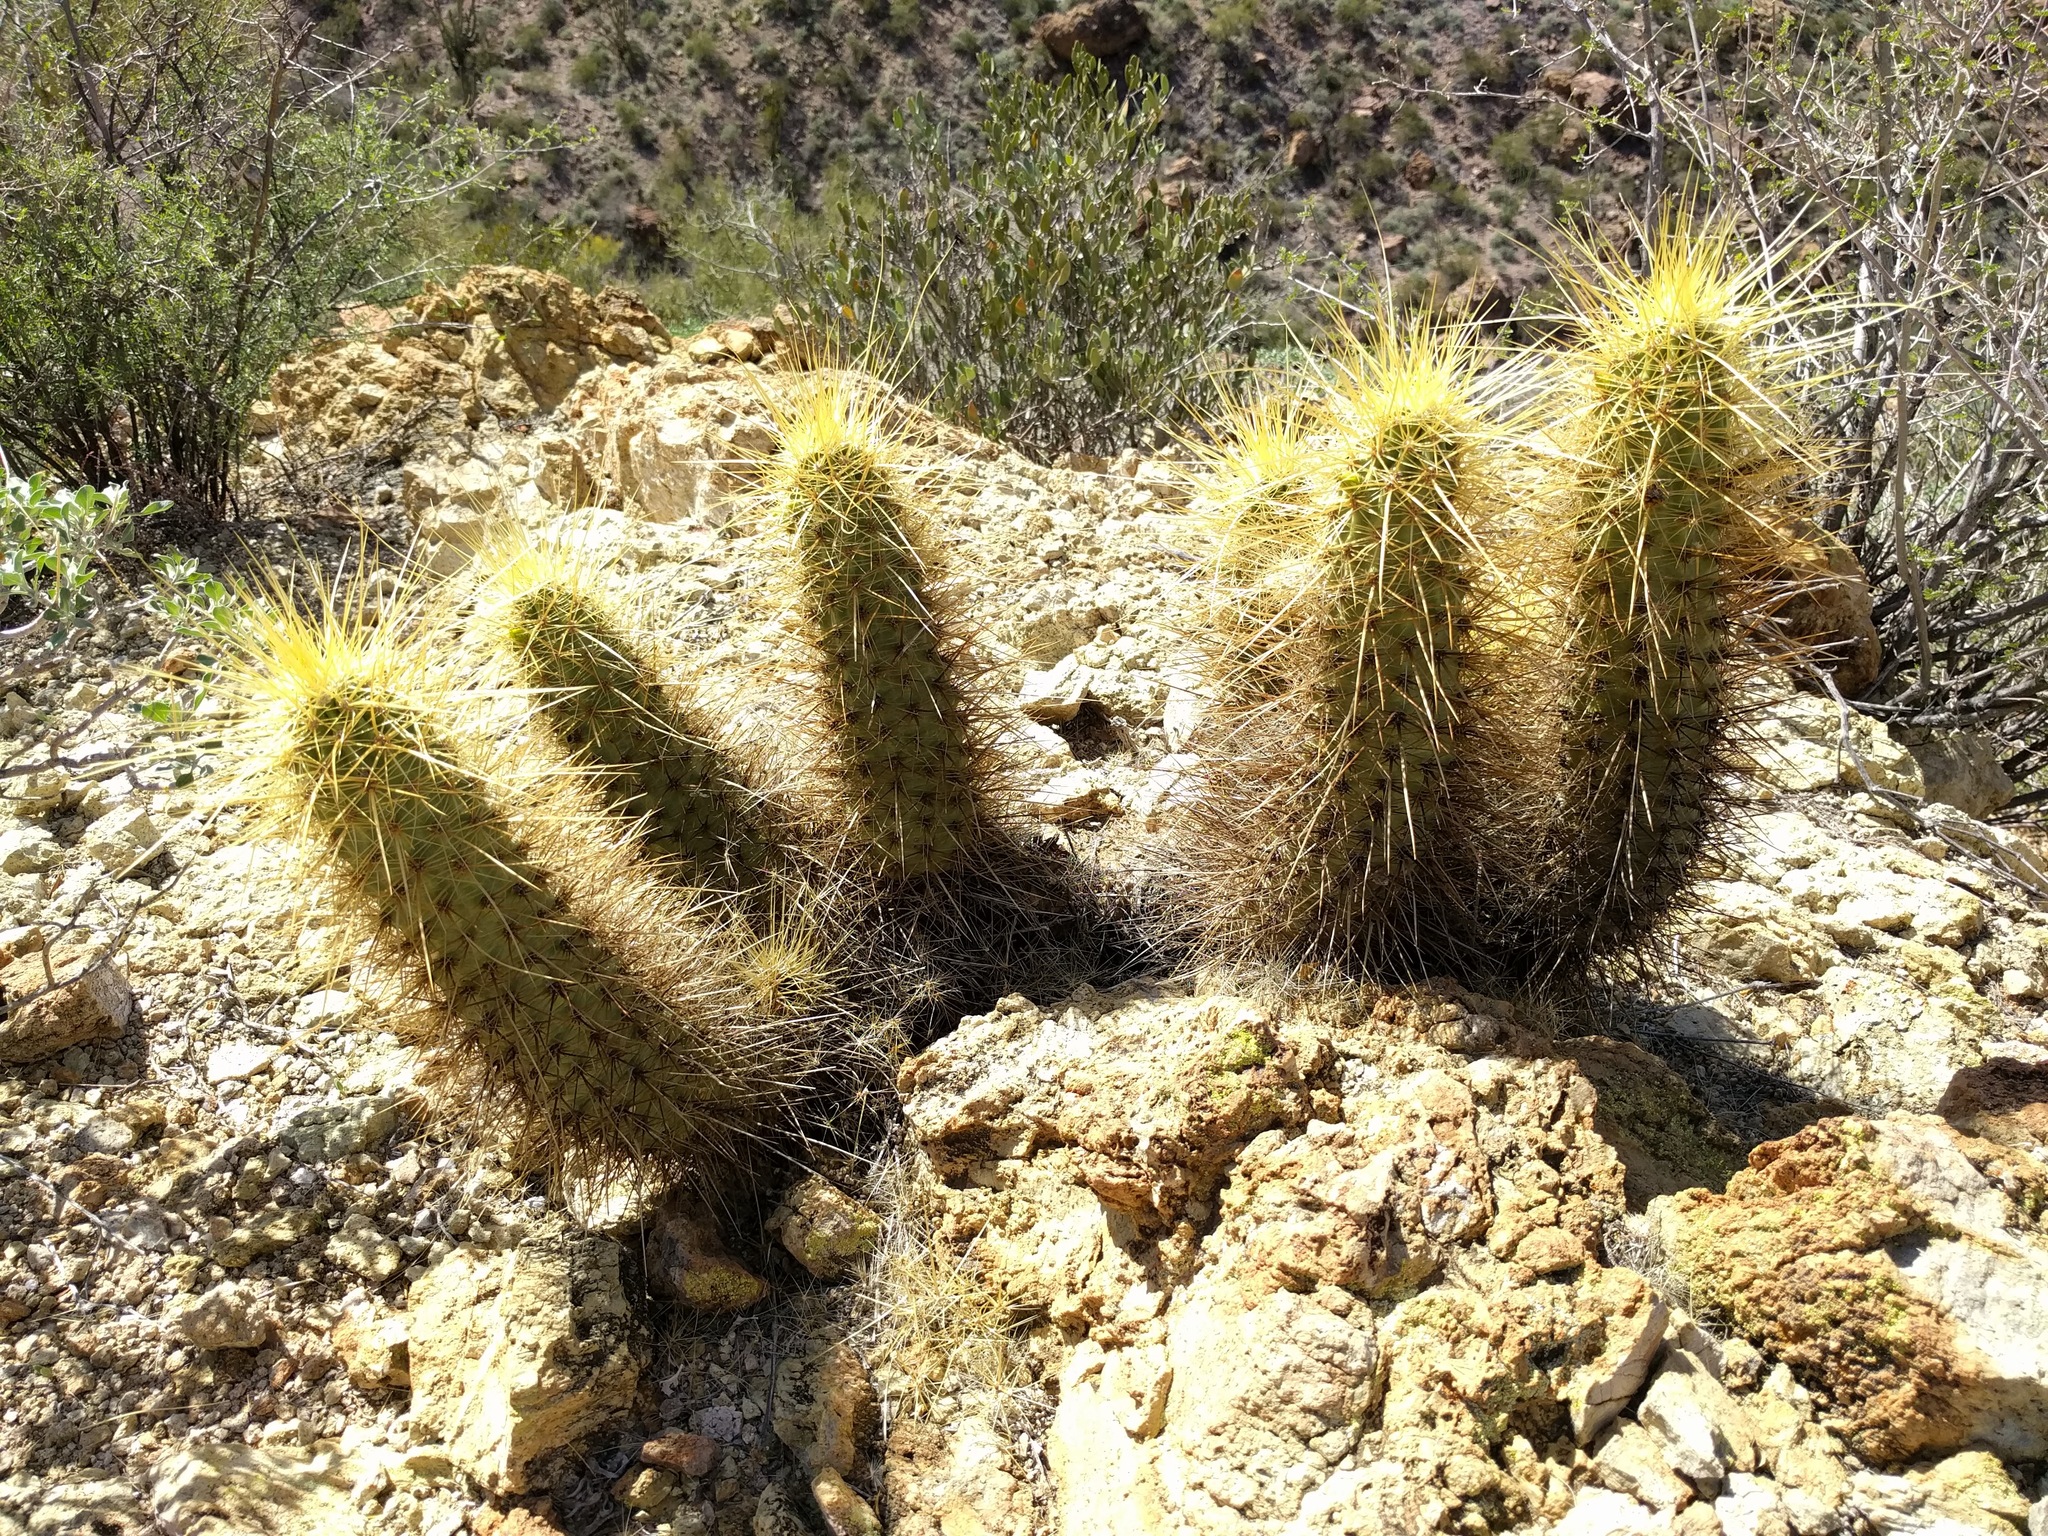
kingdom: Plantae
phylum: Tracheophyta
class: Magnoliopsida
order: Caryophyllales
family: Cactaceae
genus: Echinocereus
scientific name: Echinocereus nicholii
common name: Nichol's hedgehog cactus
